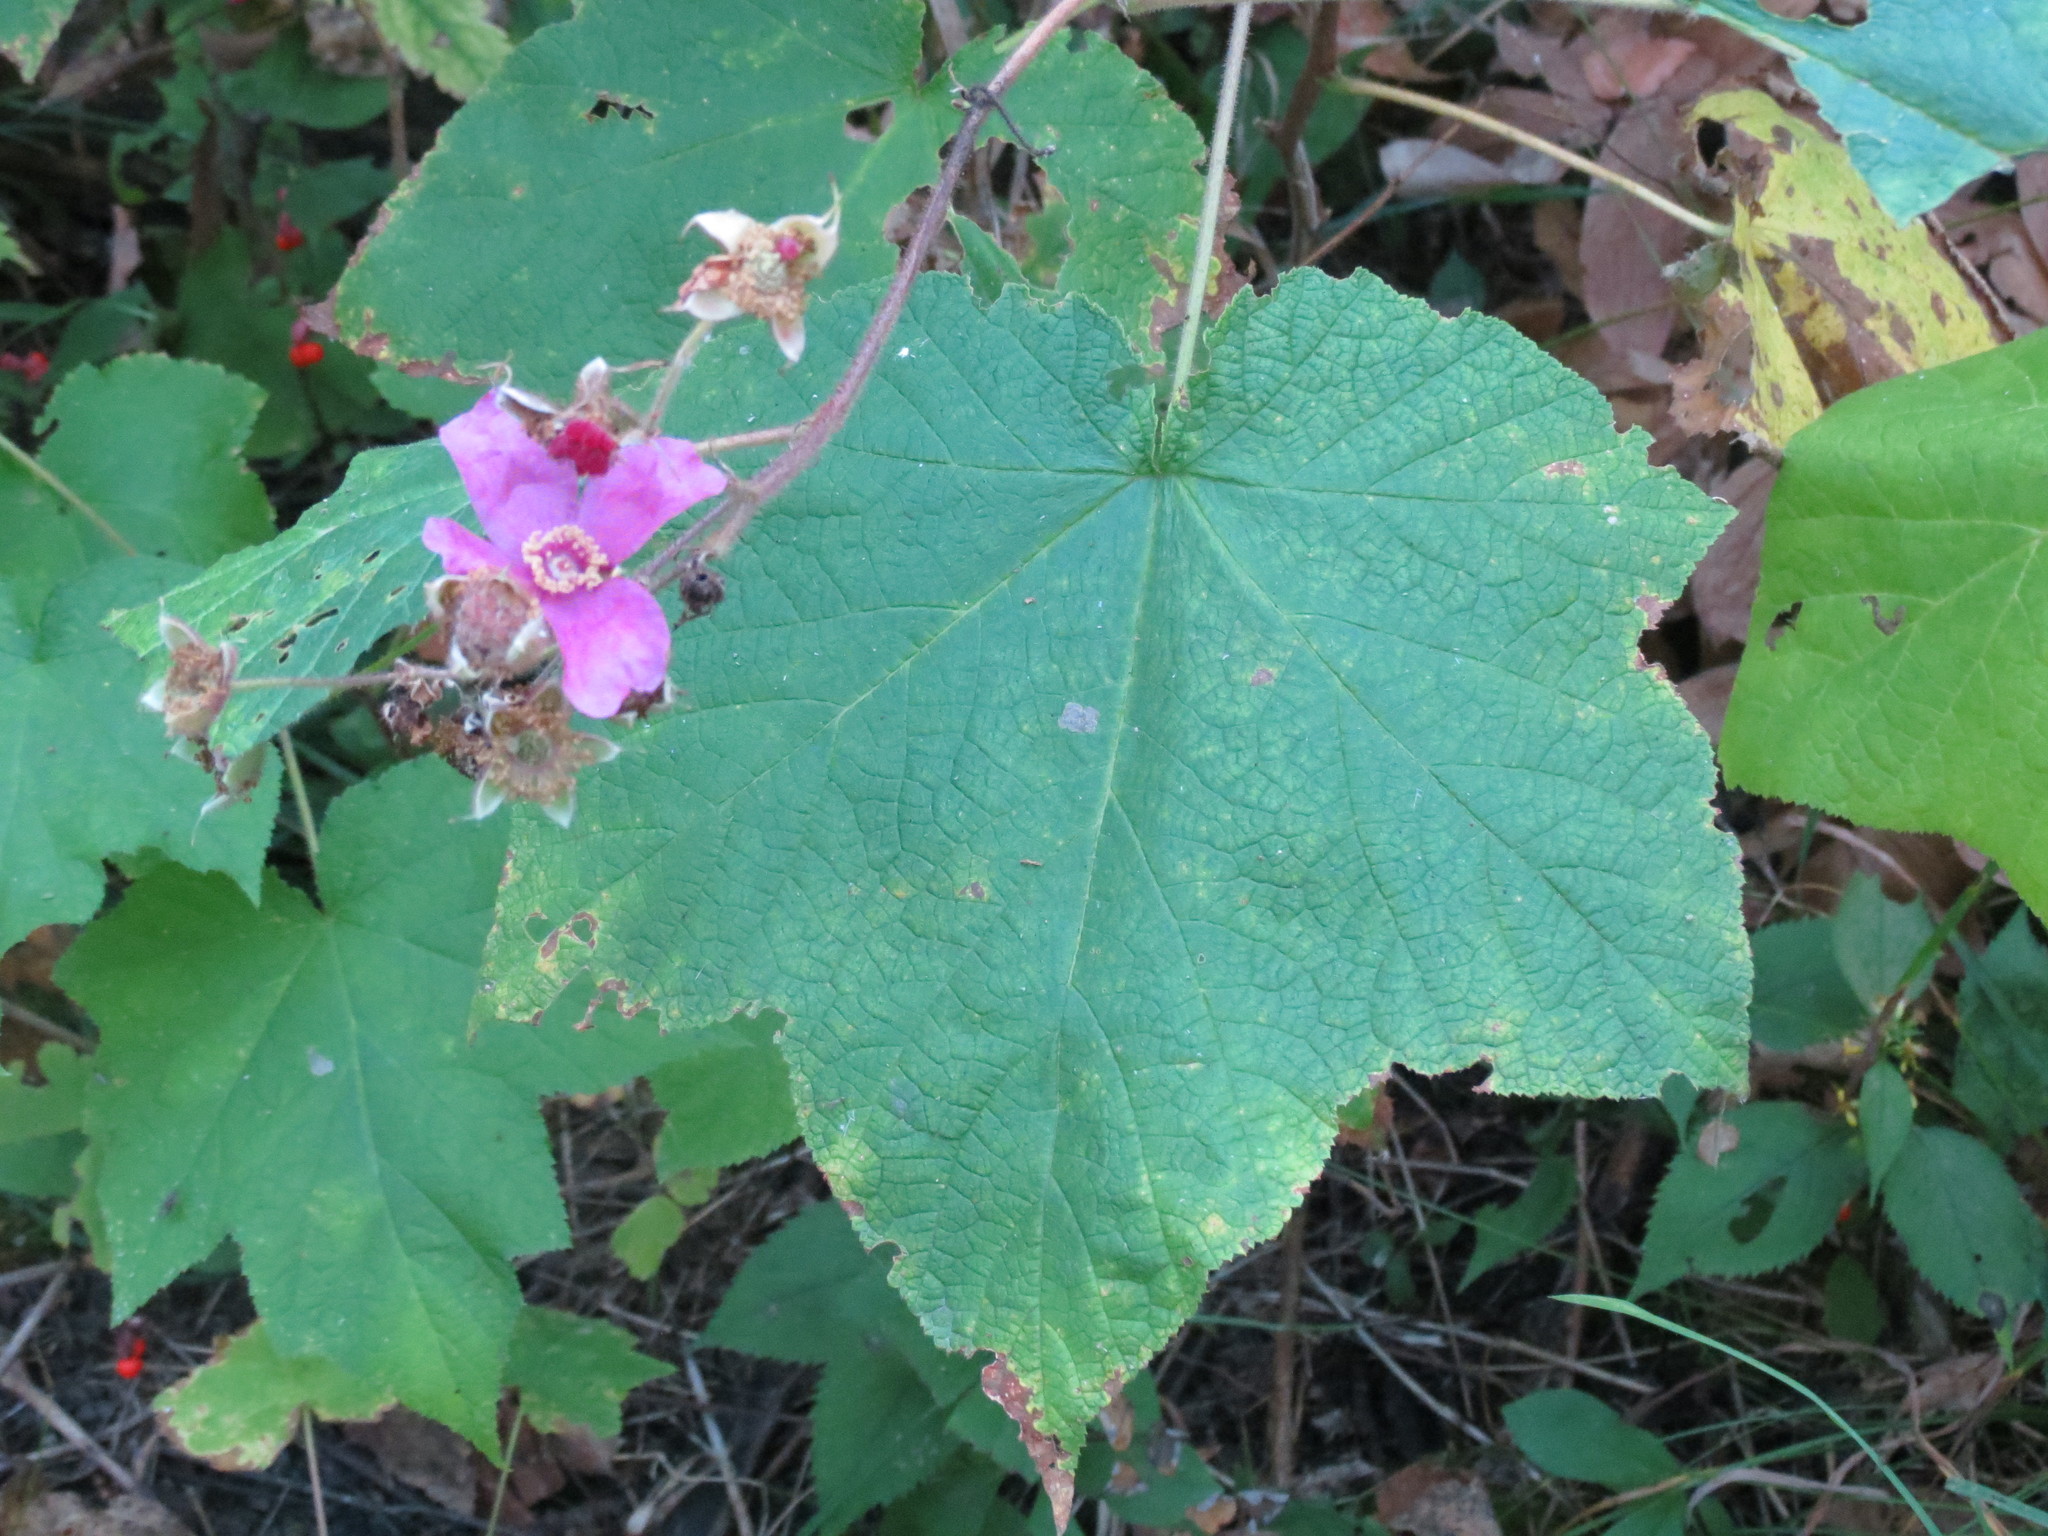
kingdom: Plantae
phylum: Tracheophyta
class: Magnoliopsida
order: Rosales
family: Rosaceae
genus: Rubus
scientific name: Rubus odoratus
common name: Purple-flowered raspberry
